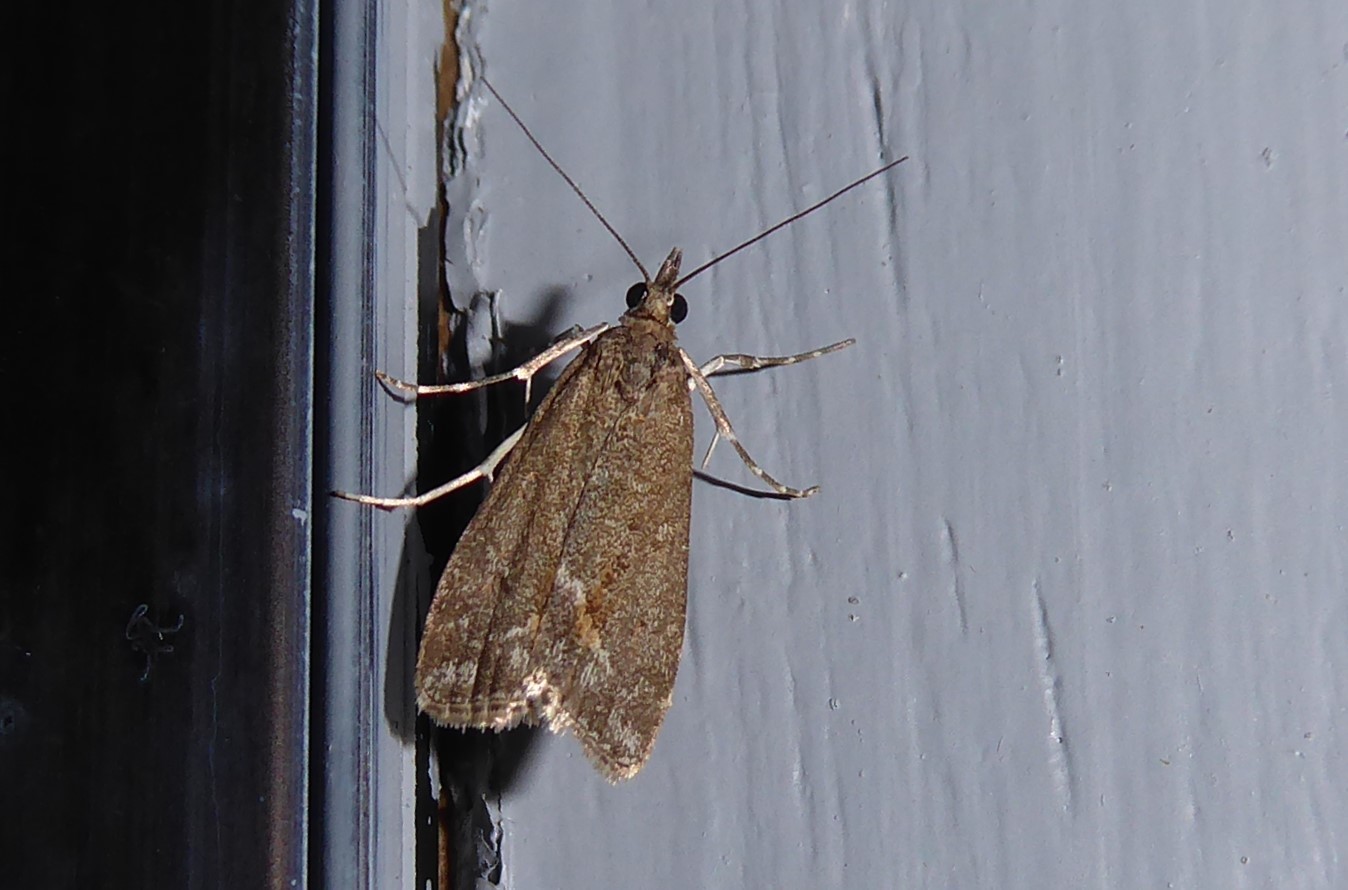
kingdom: Animalia
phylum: Arthropoda
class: Insecta
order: Lepidoptera
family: Crambidae
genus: Eudonia
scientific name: Eudonia submarginalis
